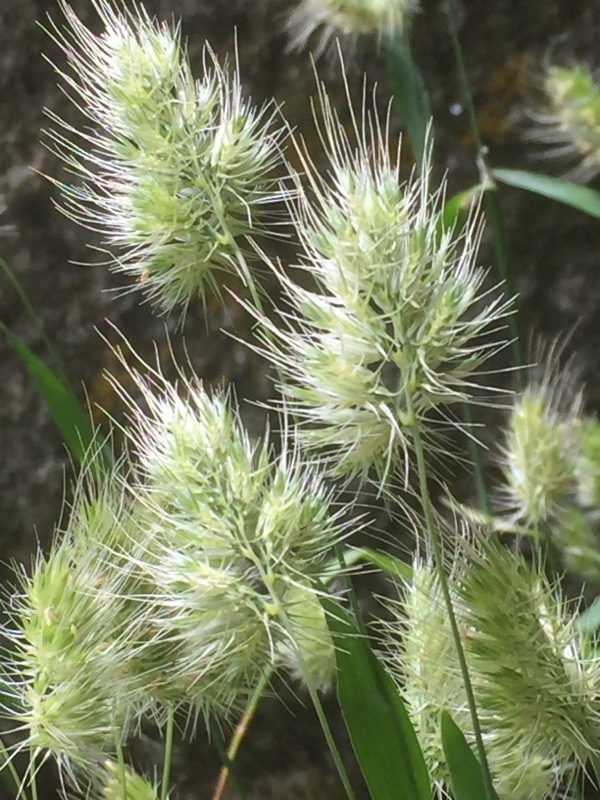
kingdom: Plantae
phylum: Tracheophyta
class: Liliopsida
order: Poales
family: Poaceae
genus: Cynosurus
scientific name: Cynosurus echinatus
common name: Rough dog's-tail
